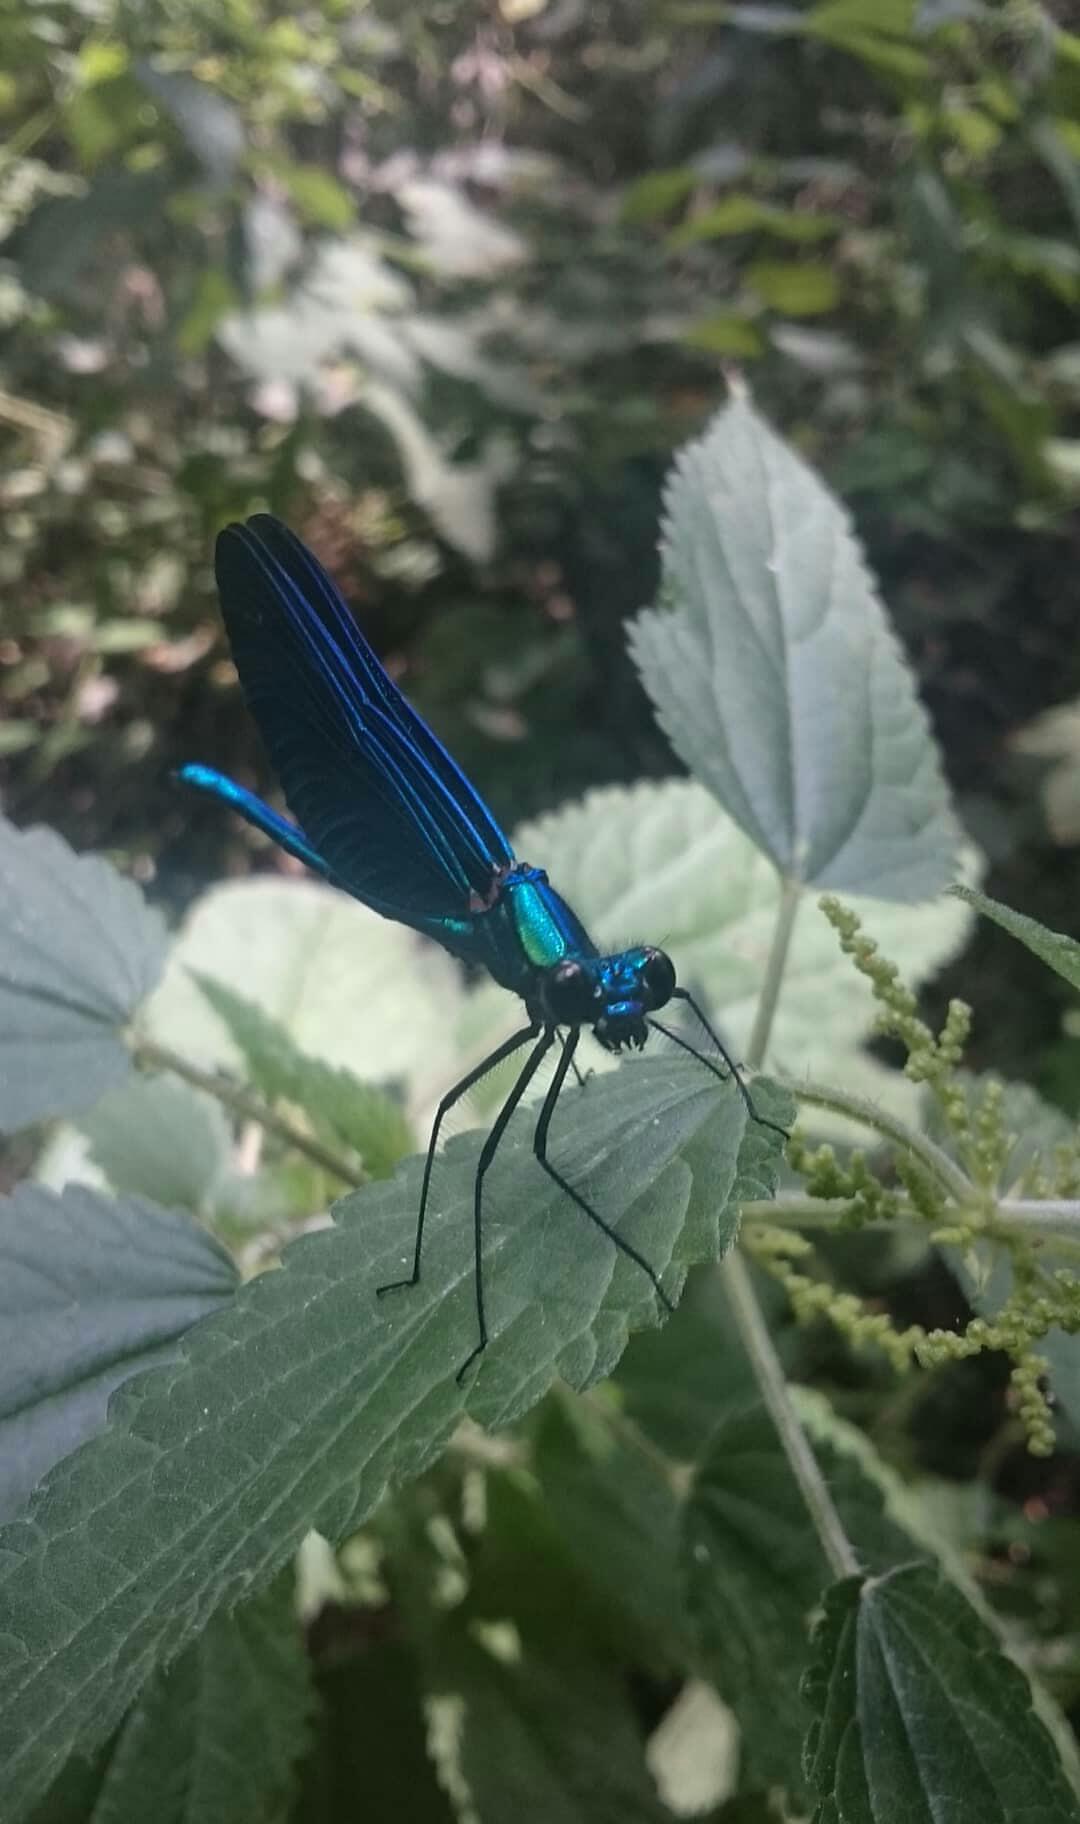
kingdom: Animalia
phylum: Arthropoda
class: Insecta
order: Odonata
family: Calopterygidae
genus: Calopteryx
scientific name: Calopteryx virgo
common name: Beautiful demoiselle
